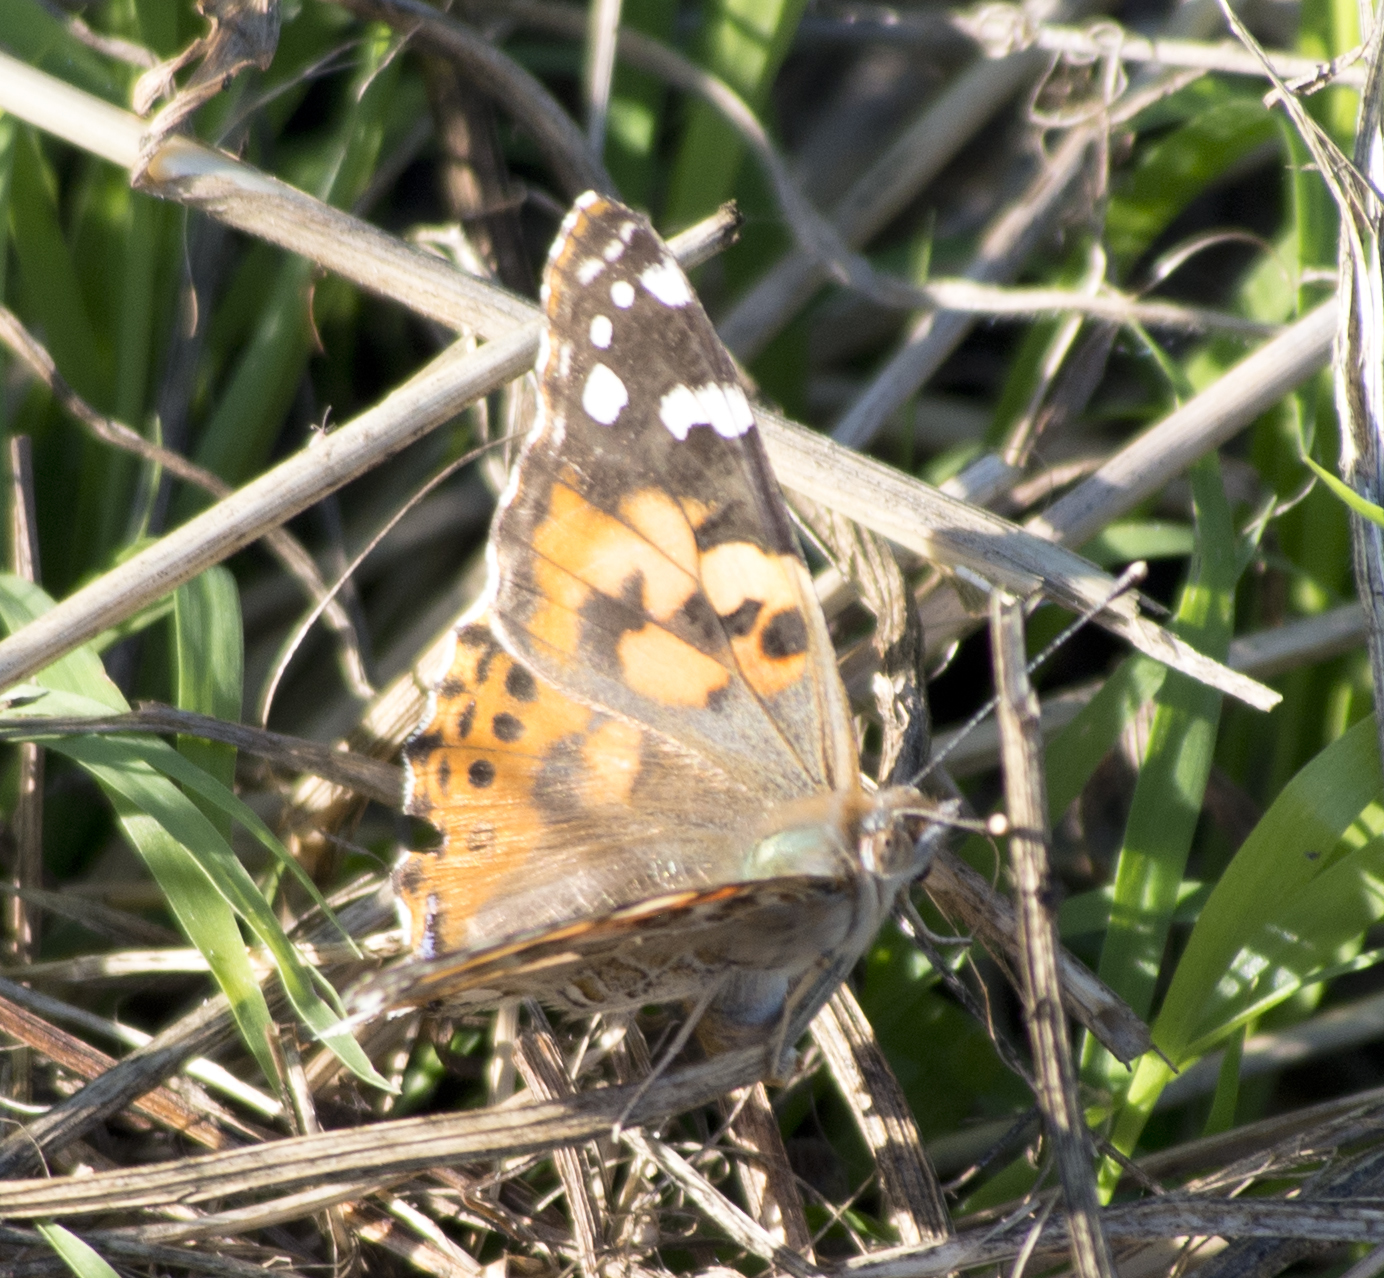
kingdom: Animalia
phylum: Arthropoda
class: Insecta
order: Lepidoptera
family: Nymphalidae
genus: Vanessa
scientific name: Vanessa cardui
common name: Painted lady
